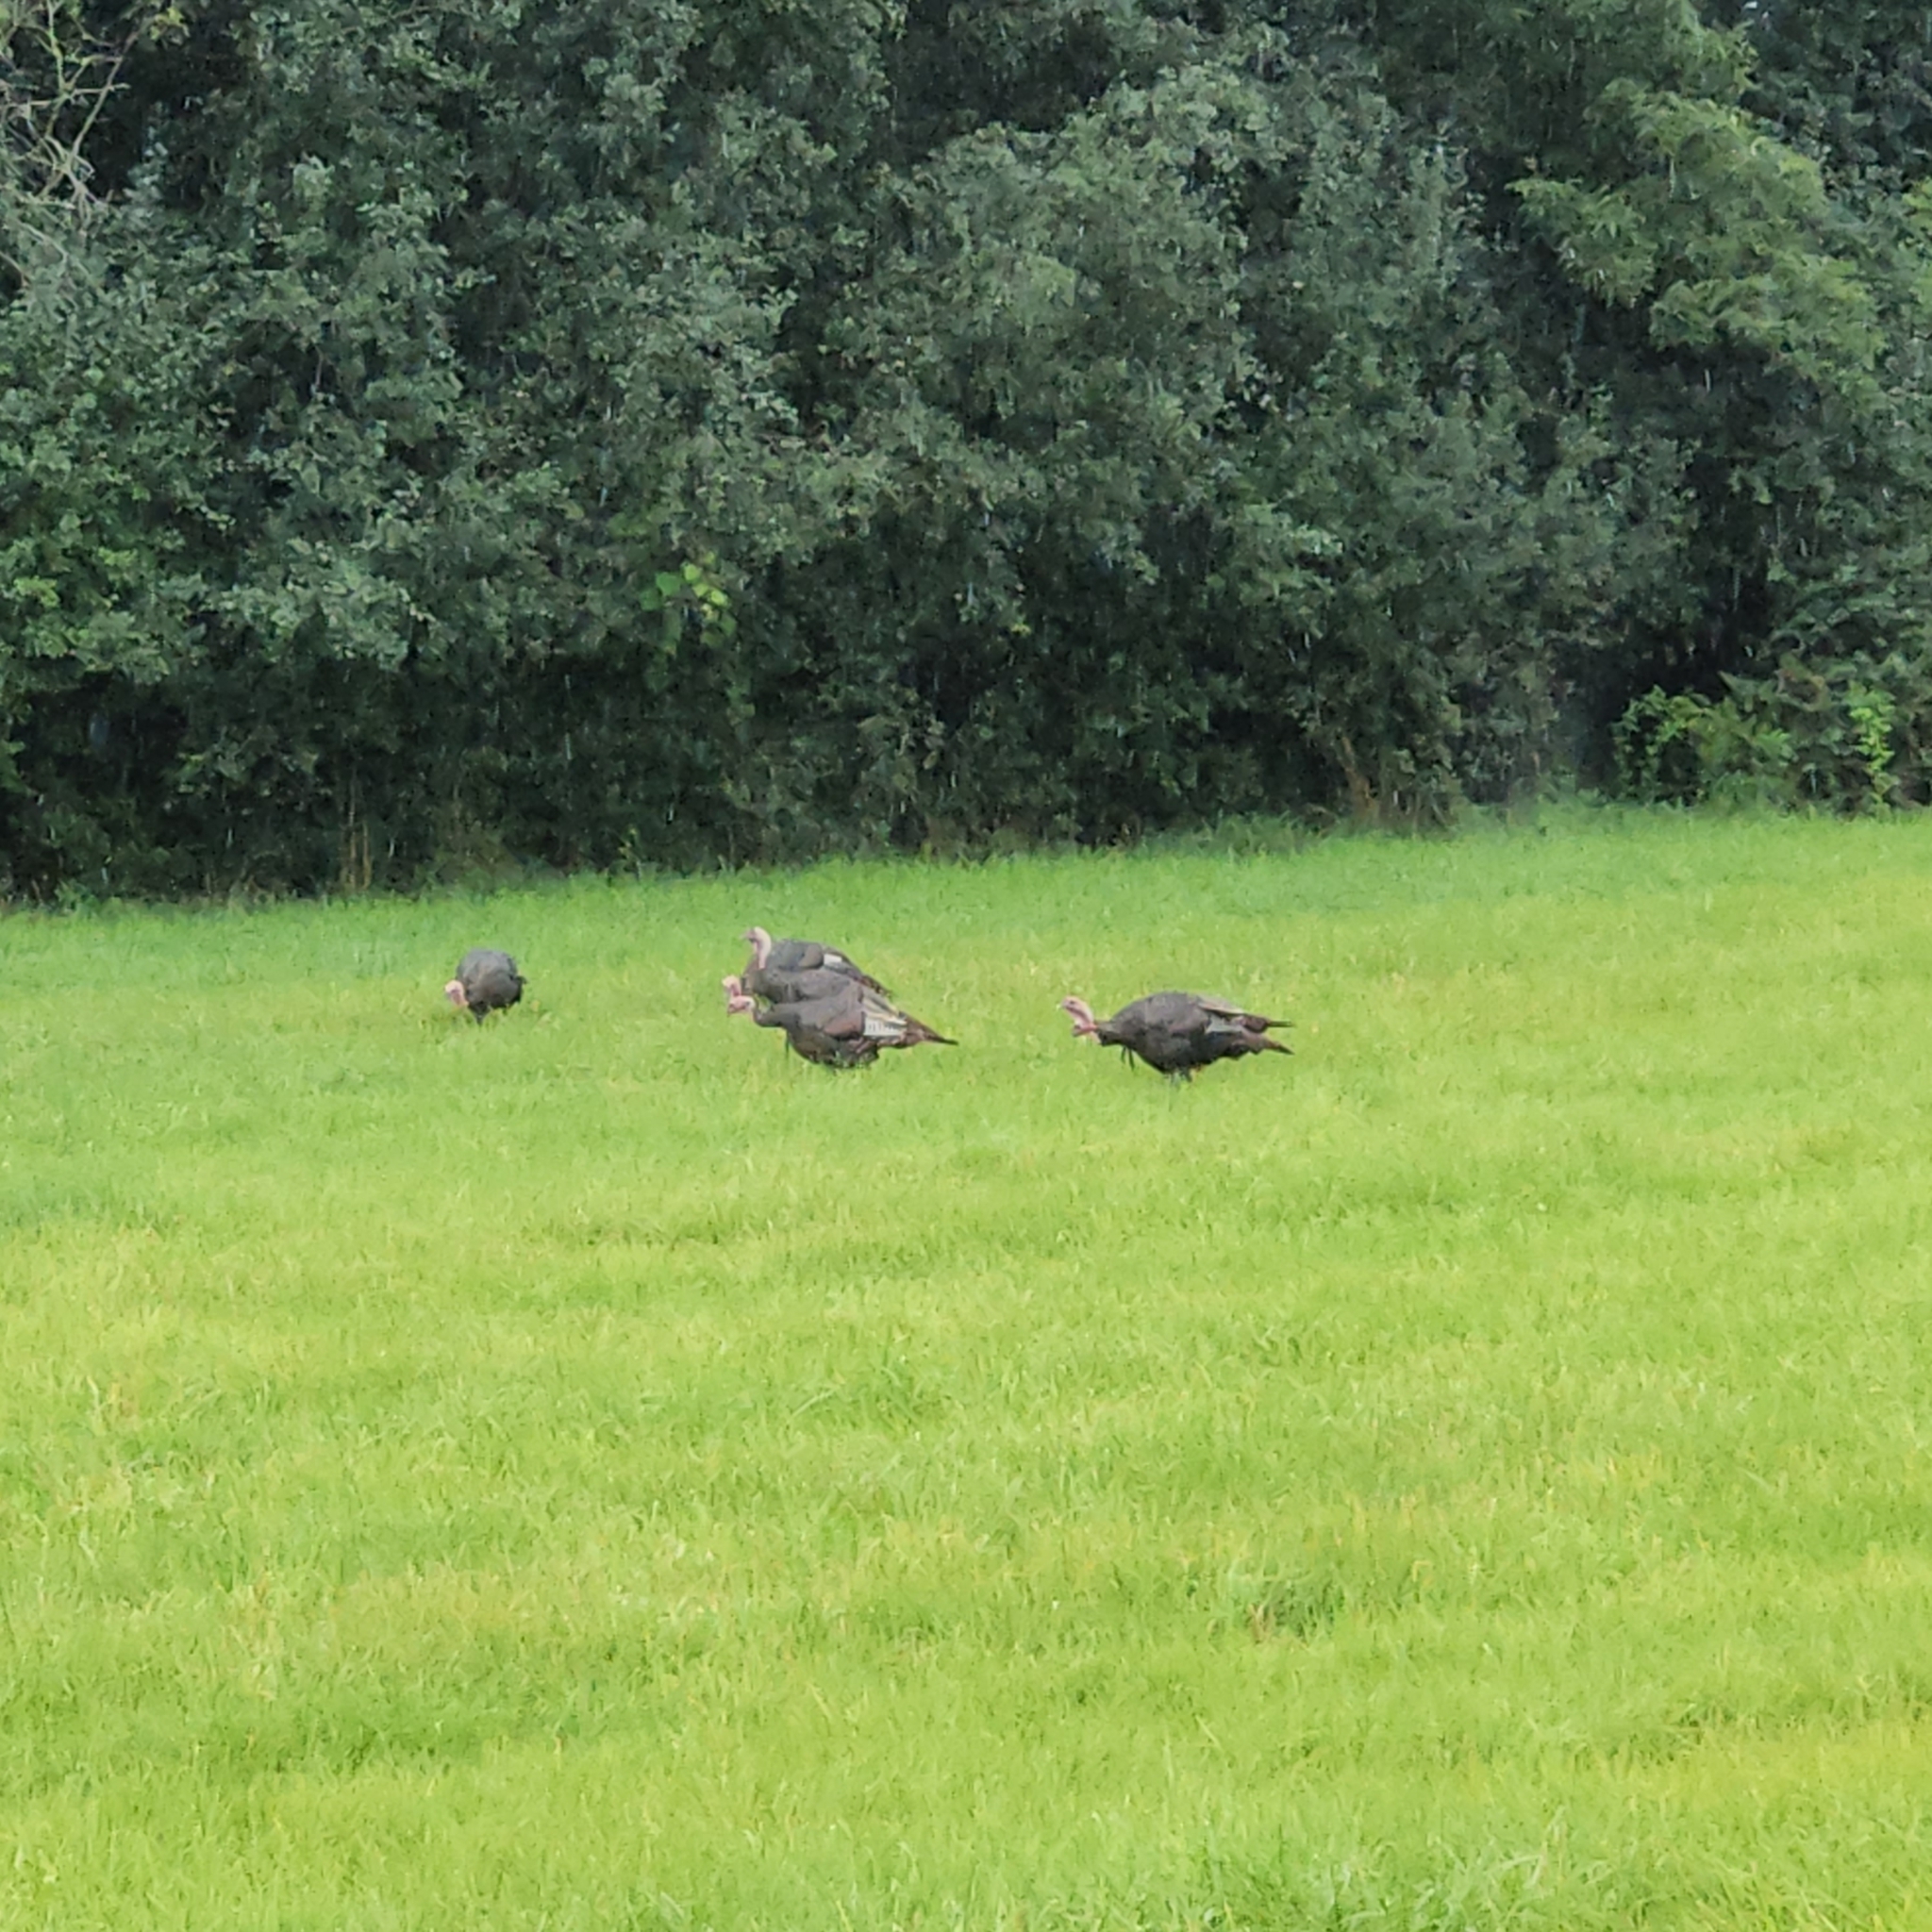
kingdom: Animalia
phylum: Chordata
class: Aves
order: Galliformes
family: Phasianidae
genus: Meleagris
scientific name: Meleagris gallopavo
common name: Wild turkey
